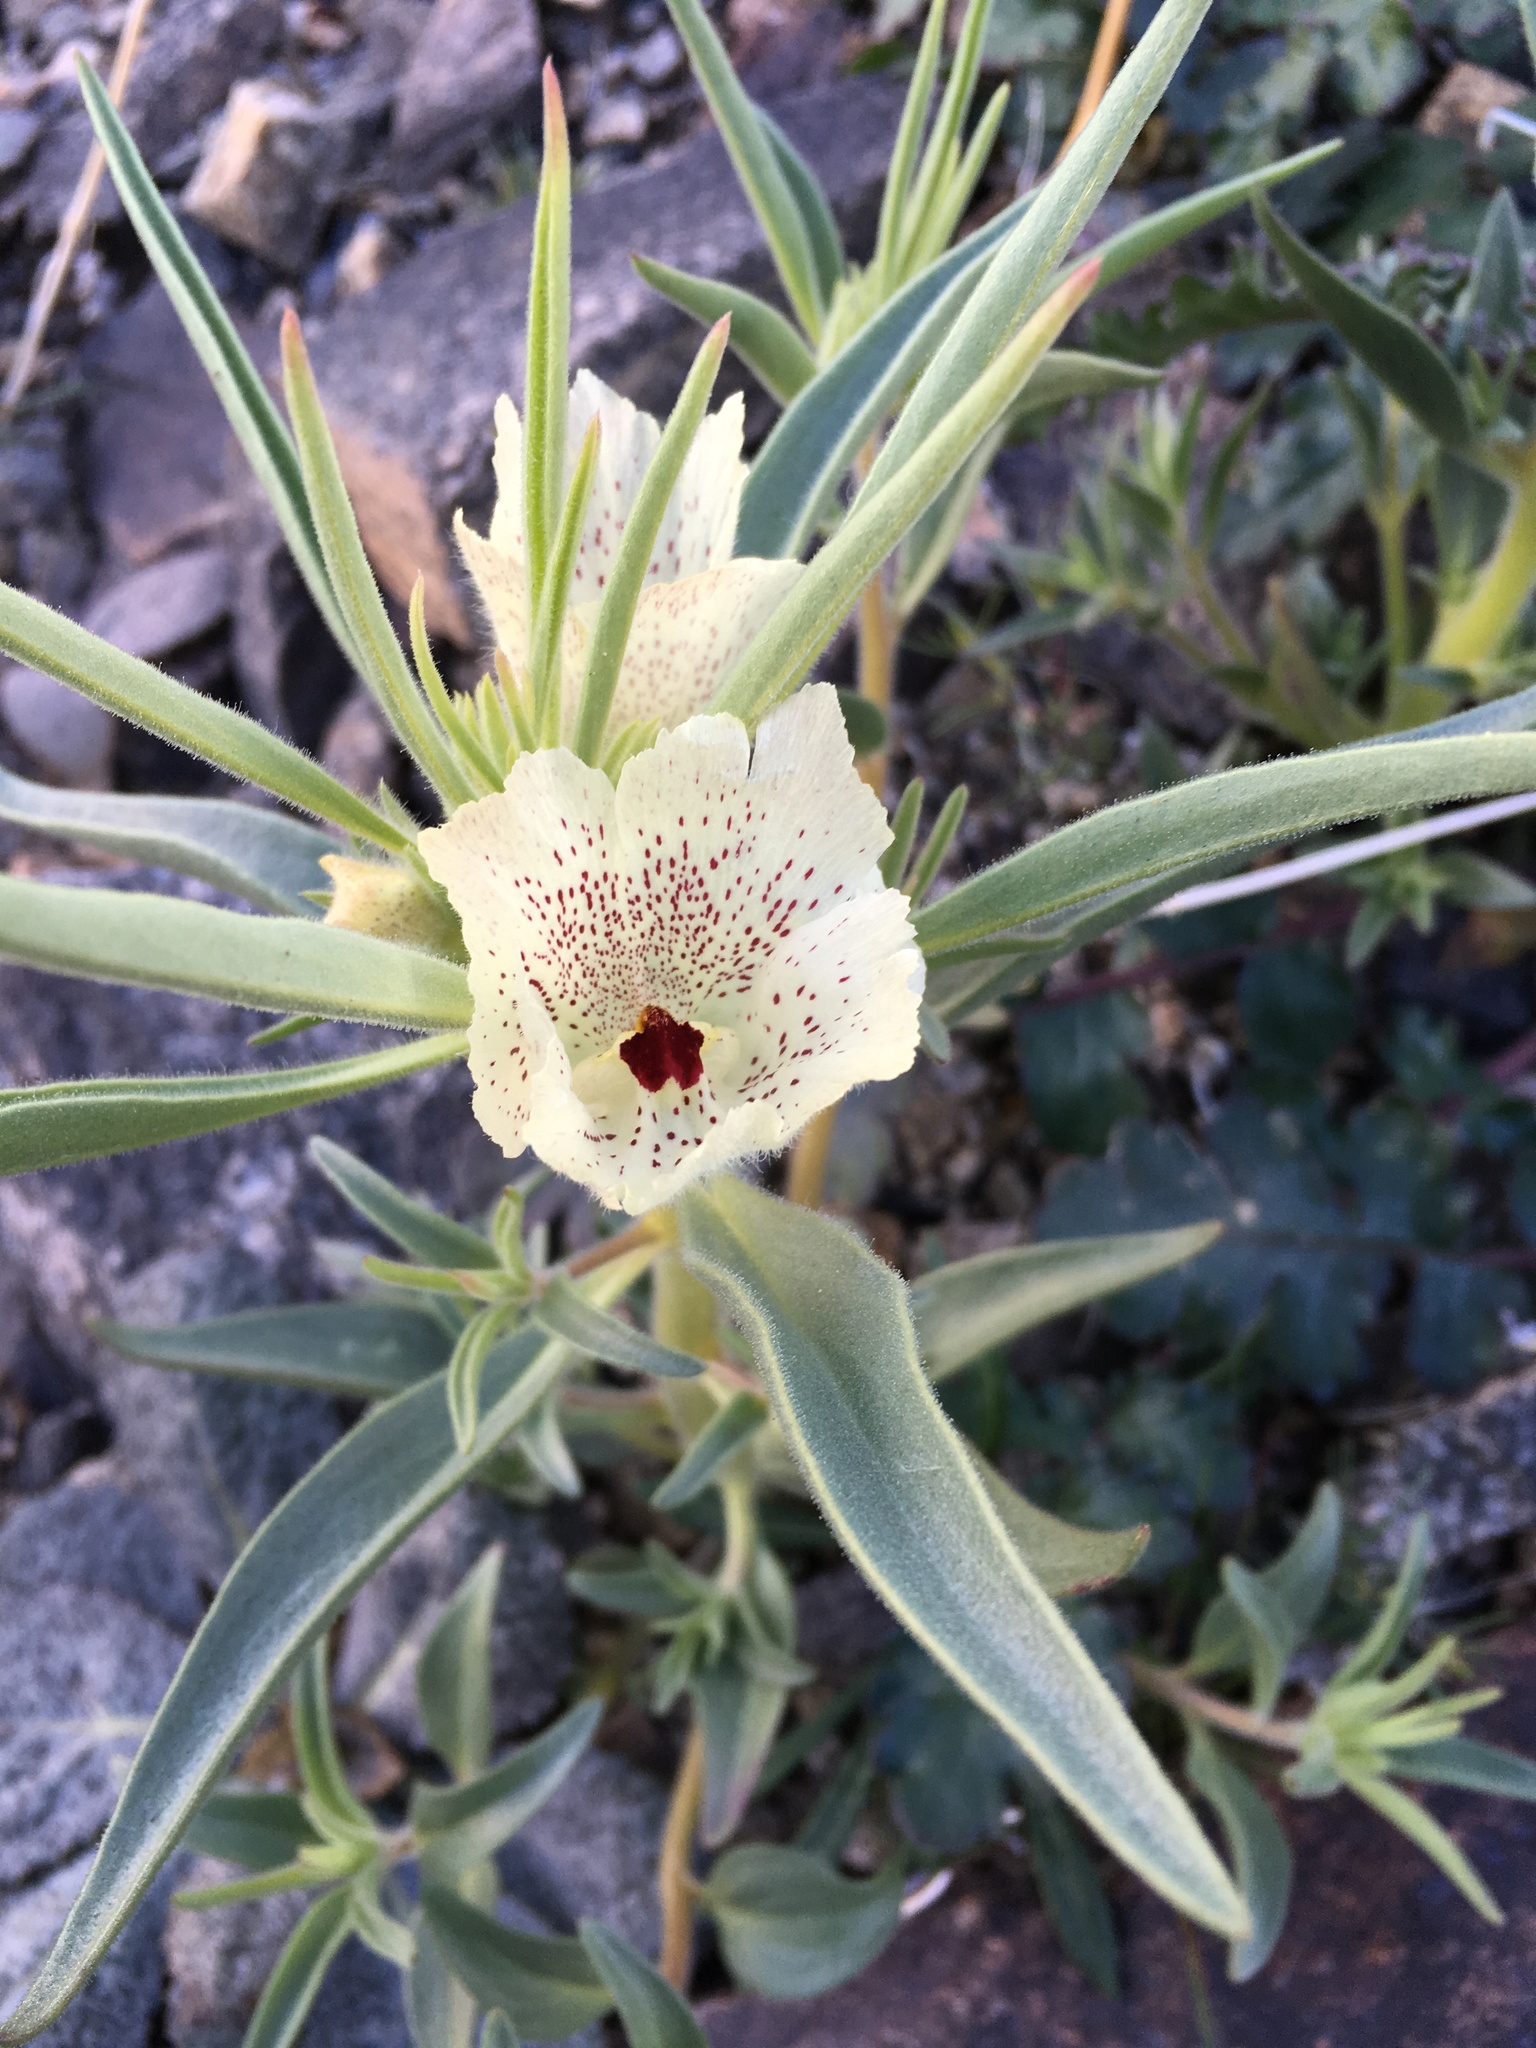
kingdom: Plantae
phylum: Tracheophyta
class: Magnoliopsida
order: Lamiales
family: Plantaginaceae
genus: Mohavea
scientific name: Mohavea confertiflora
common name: Ghost flower
